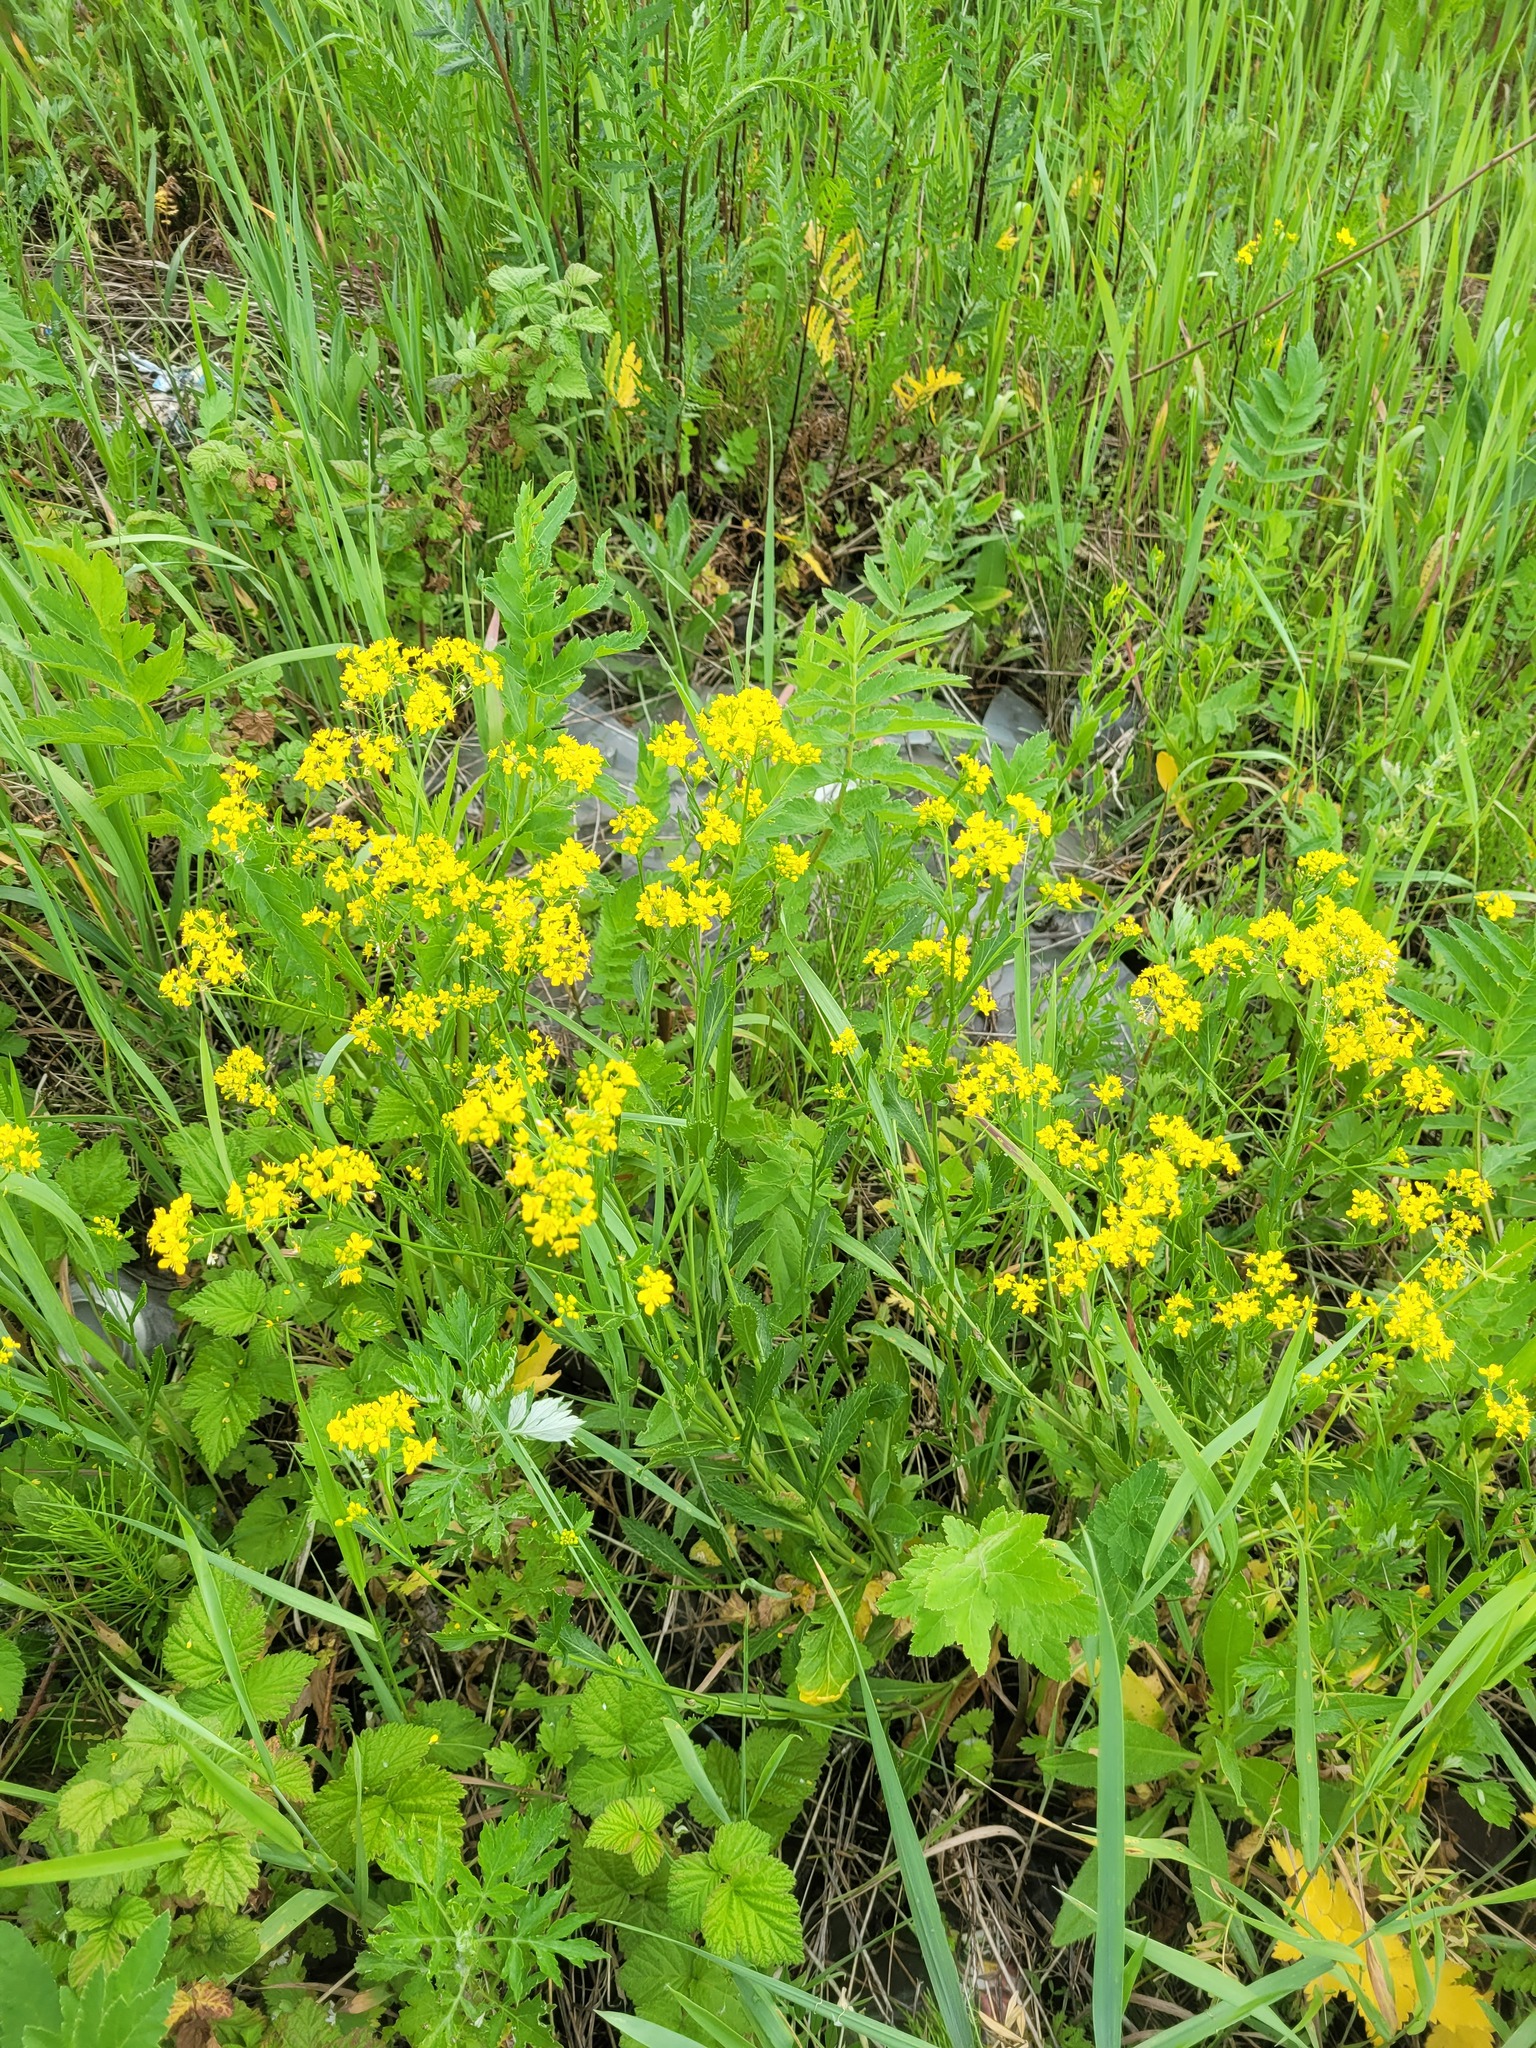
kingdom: Plantae
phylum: Tracheophyta
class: Magnoliopsida
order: Brassicales
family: Brassicaceae
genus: Rorippa
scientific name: Rorippa austriaca
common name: Austrian yellow-cress
